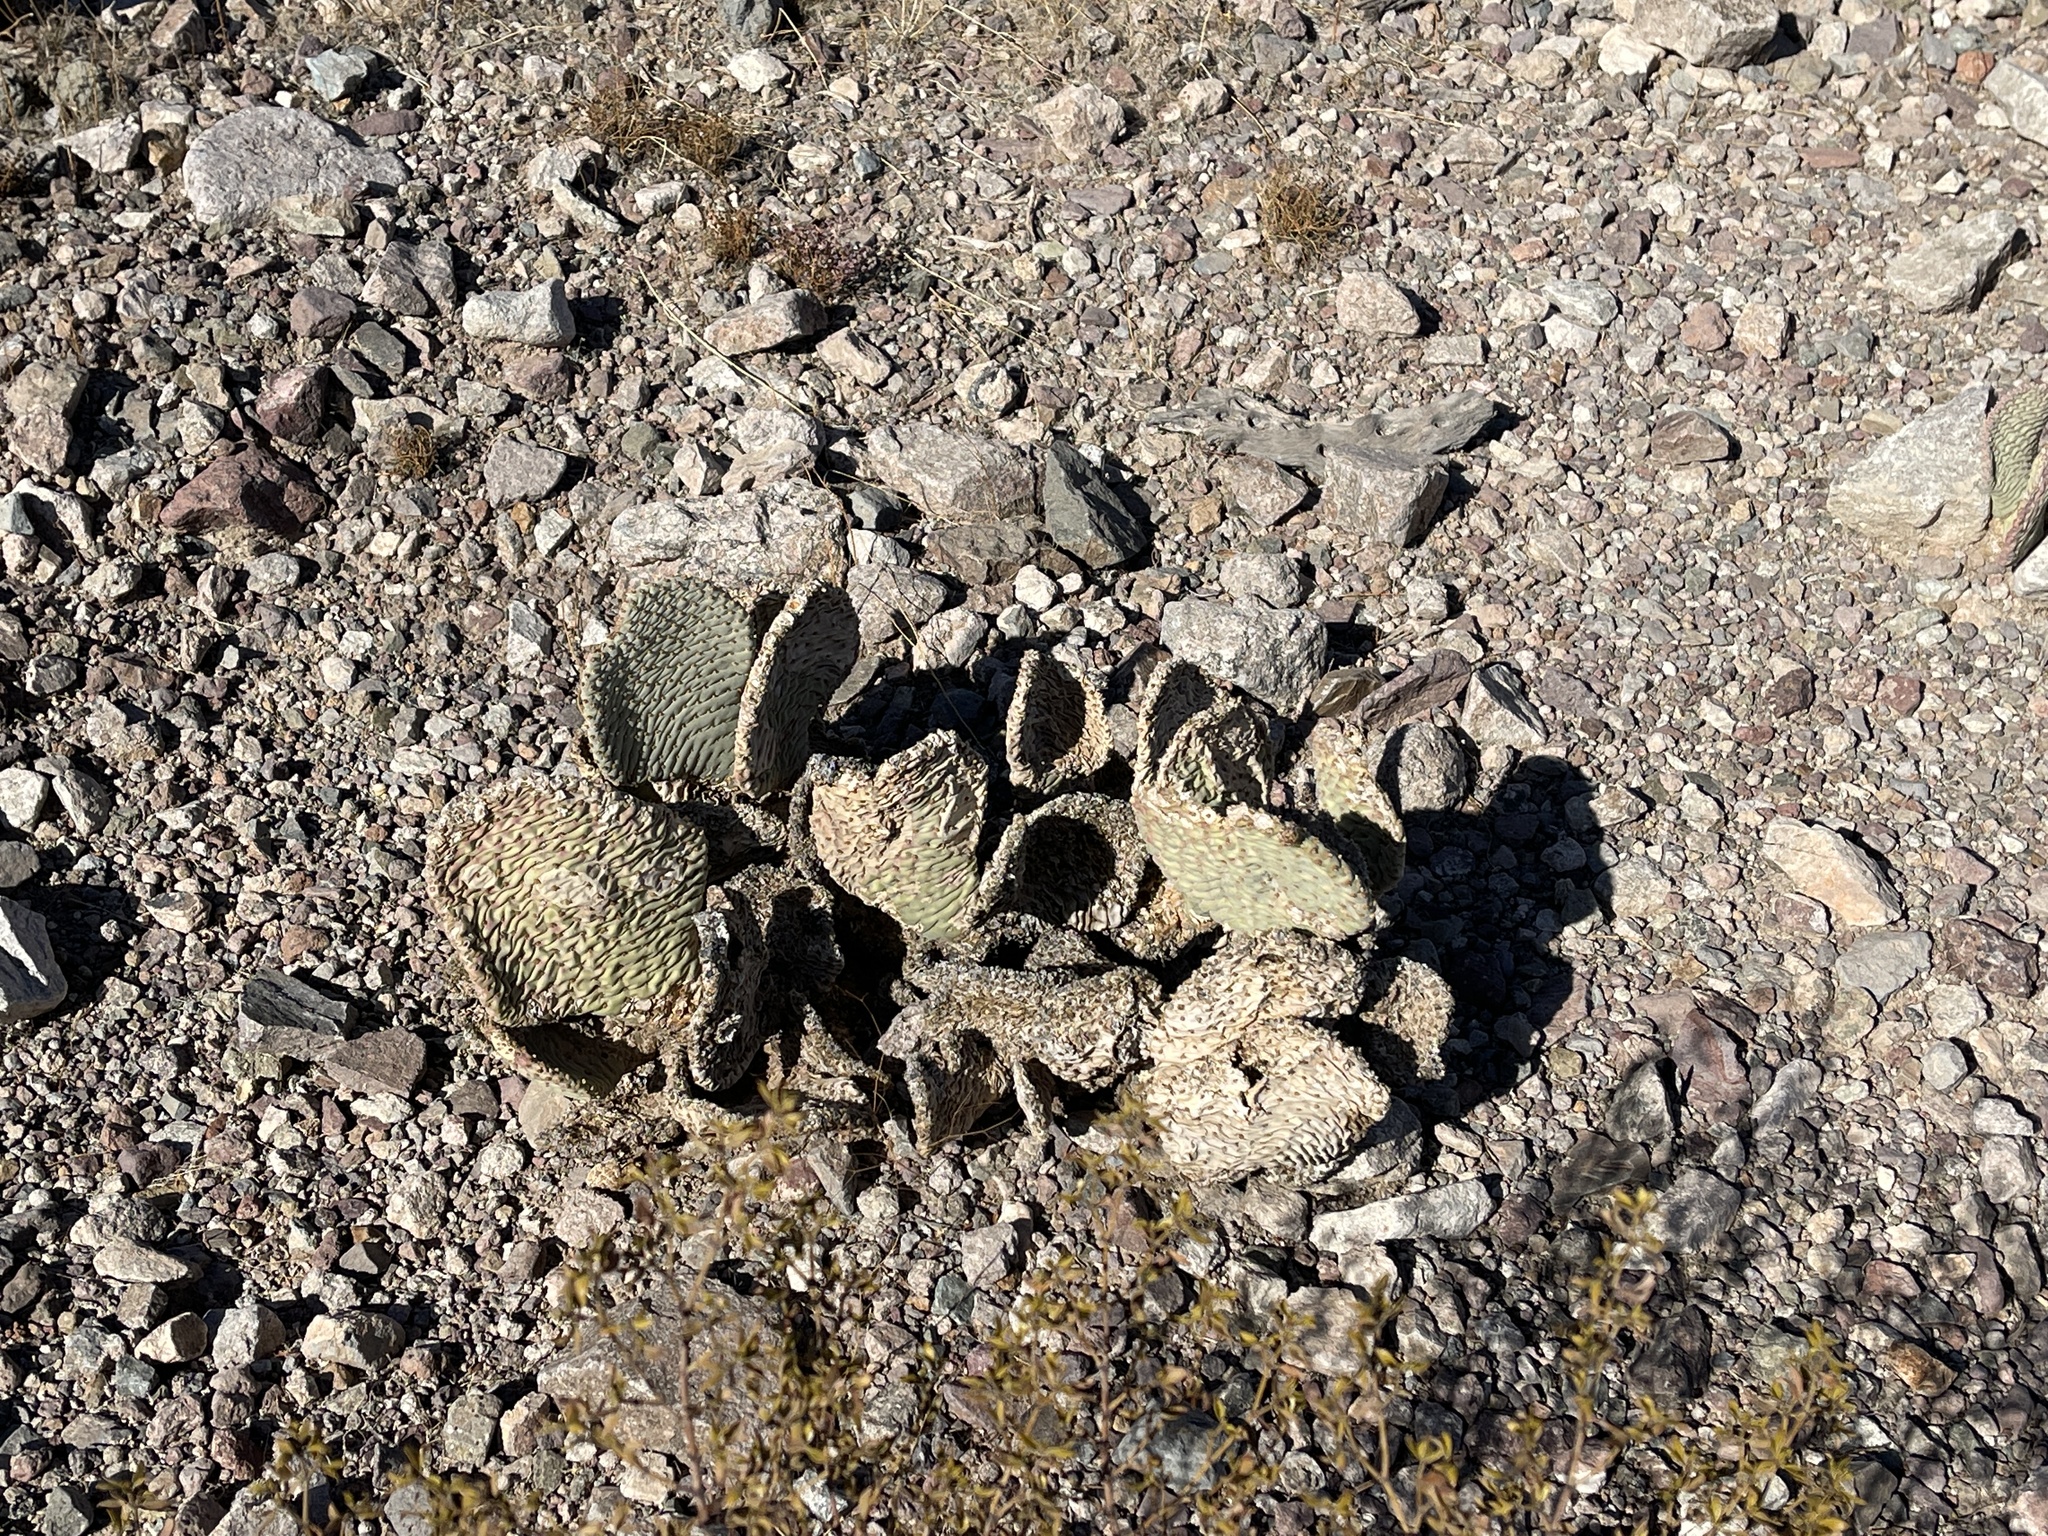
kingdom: Plantae
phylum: Tracheophyta
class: Magnoliopsida
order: Caryophyllales
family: Cactaceae
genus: Opuntia
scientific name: Opuntia basilaris
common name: Beavertail prickly-pear
